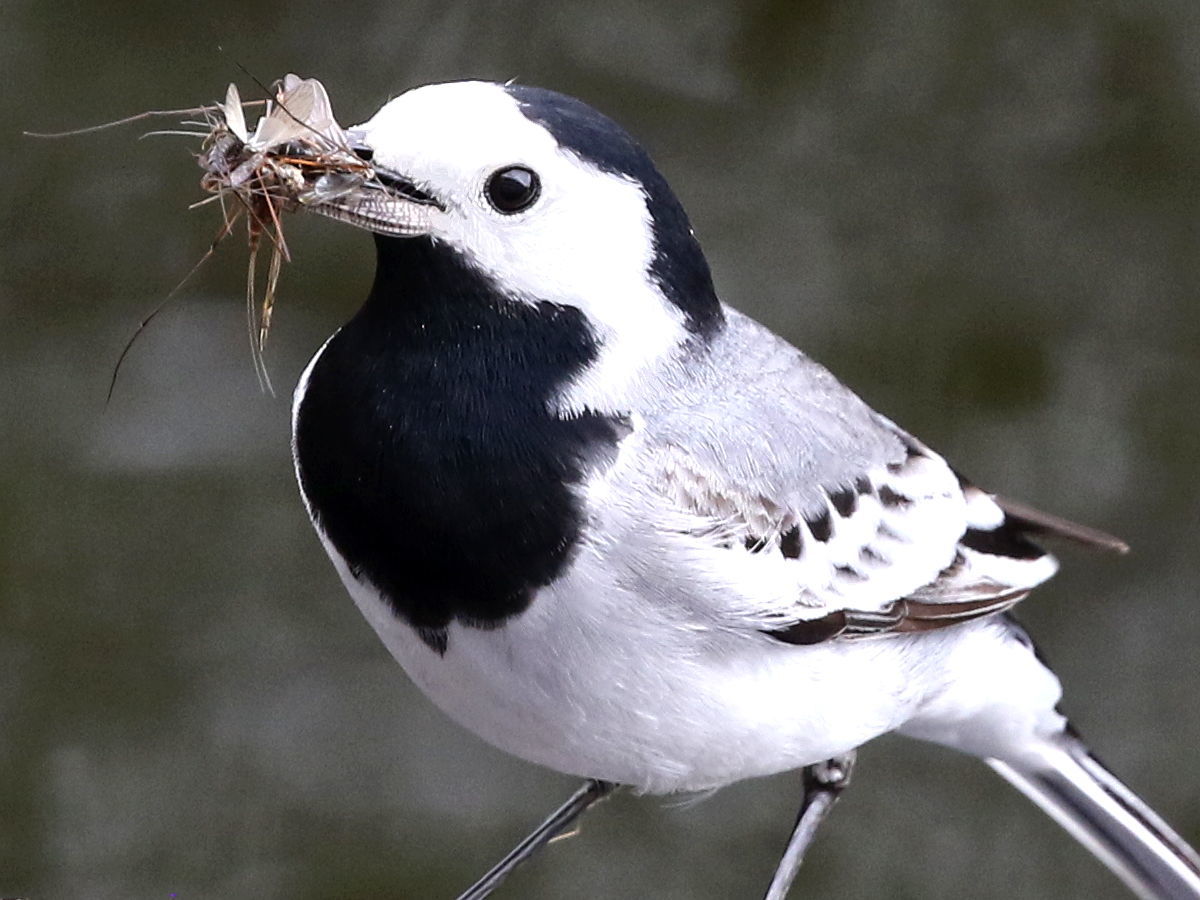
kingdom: Animalia
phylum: Chordata
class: Aves
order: Passeriformes
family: Motacillidae
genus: Motacilla
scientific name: Motacilla alba
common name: White wagtail
